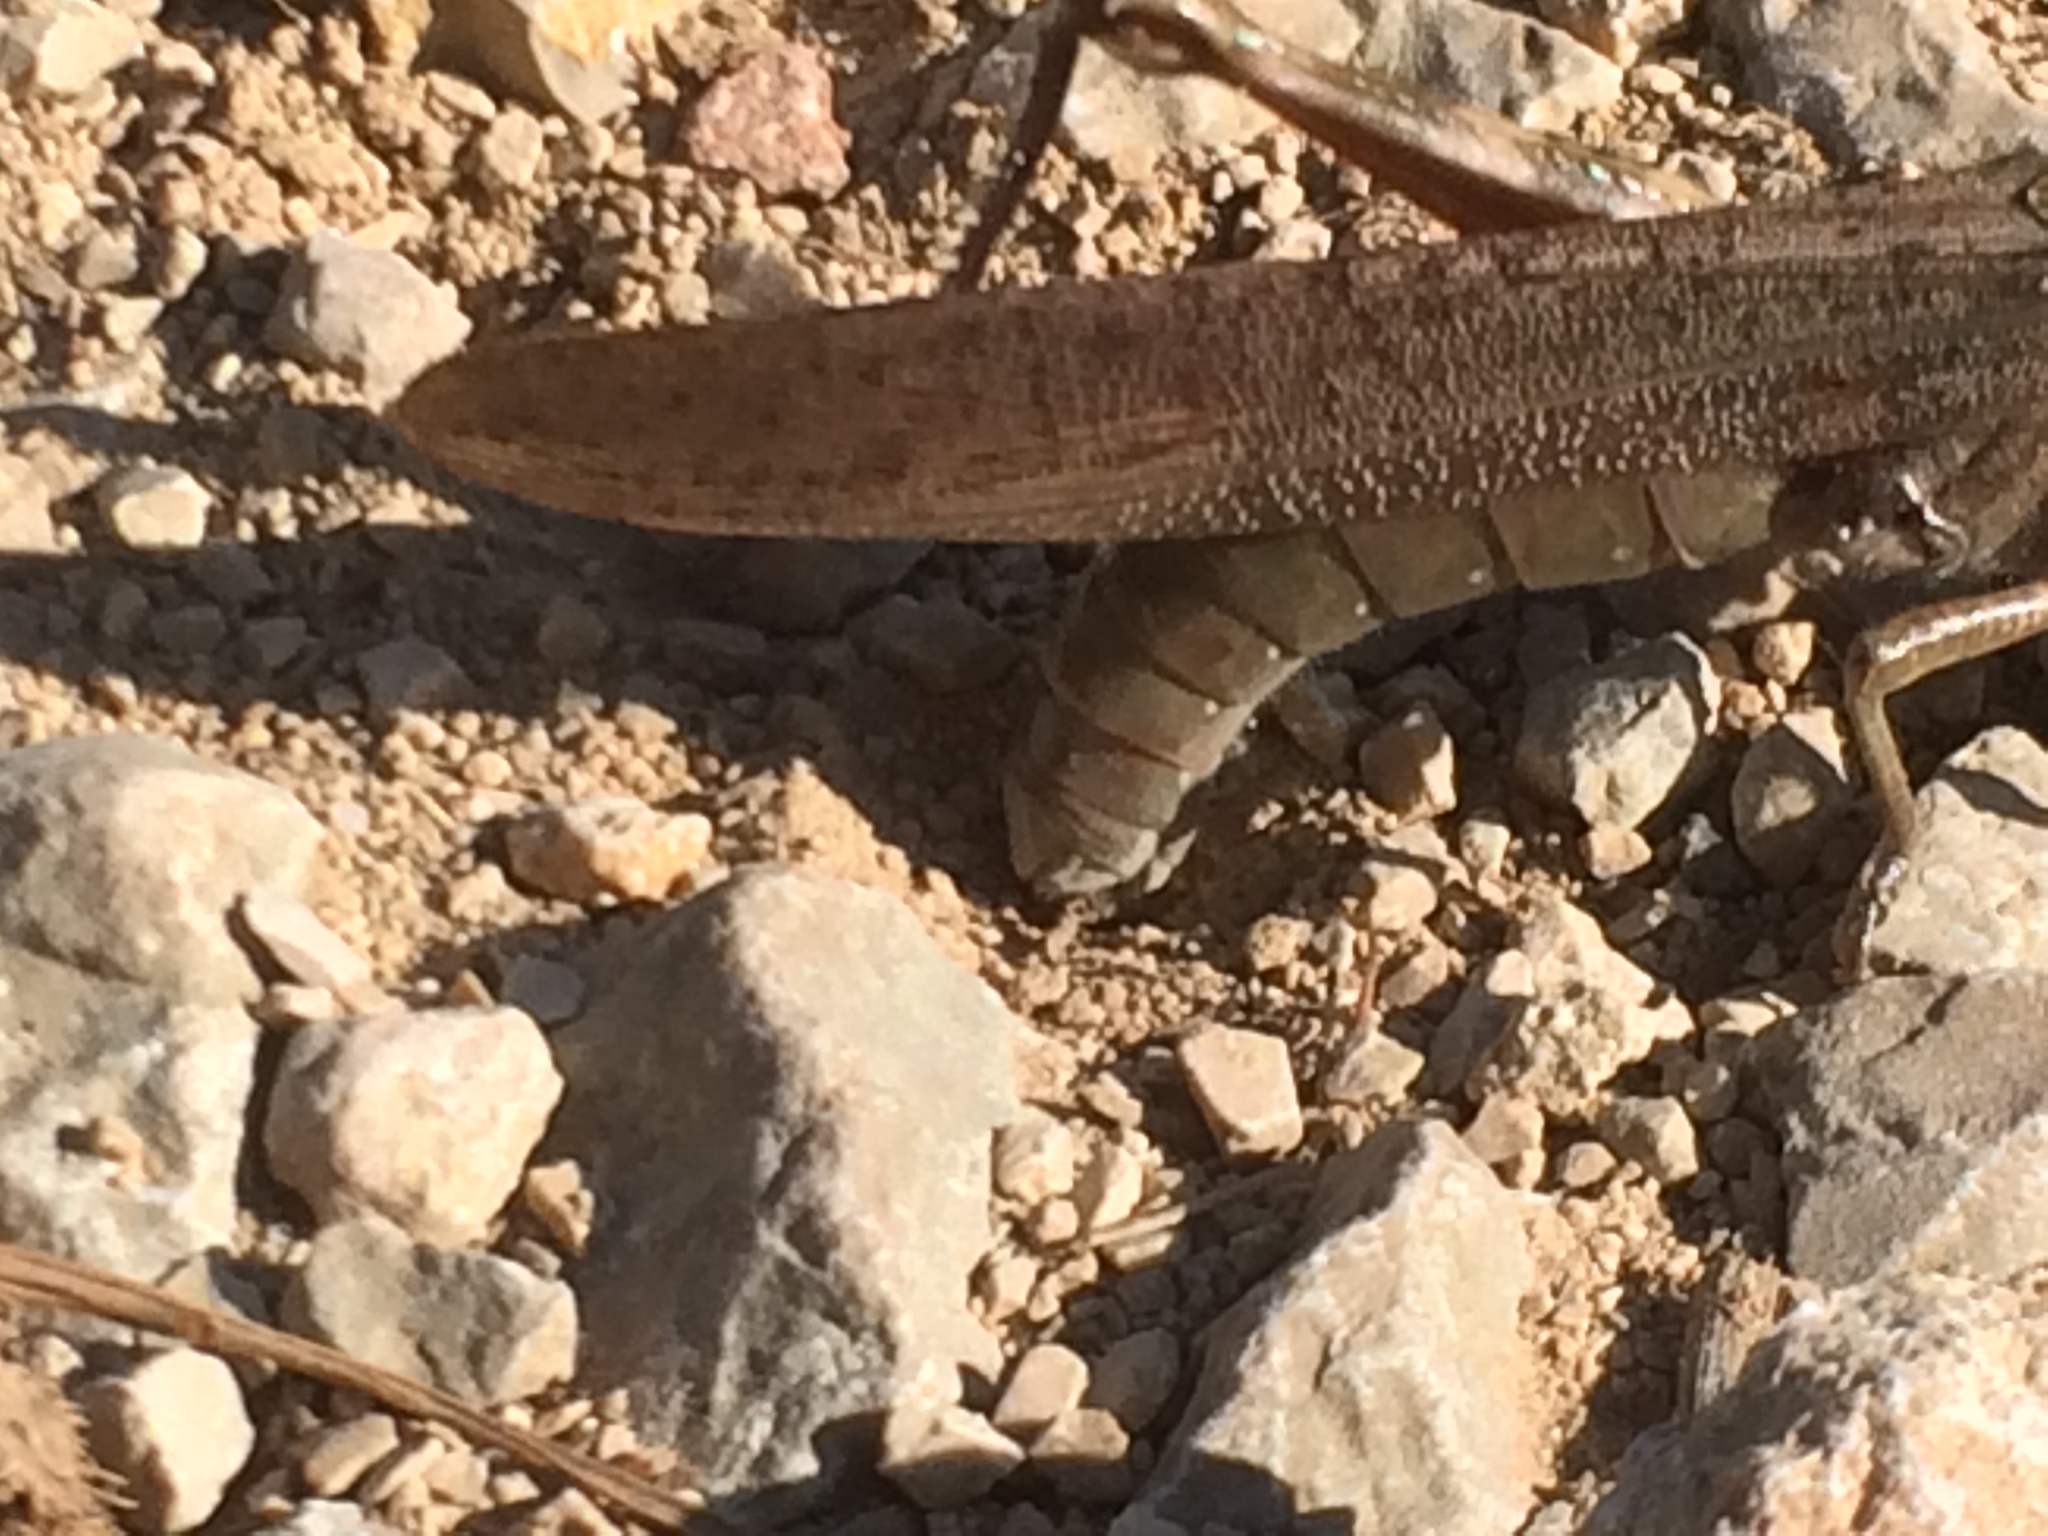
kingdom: Animalia
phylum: Arthropoda
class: Insecta
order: Orthoptera
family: Acrididae
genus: Anacridium
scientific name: Anacridium aegyptium
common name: Egyptian grasshopper
